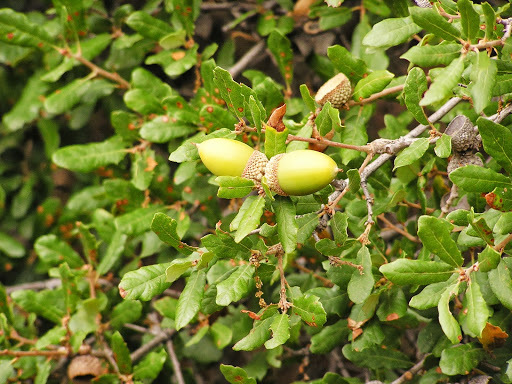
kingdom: Plantae
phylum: Tracheophyta
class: Magnoliopsida
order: Fagales
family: Fagaceae
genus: Quercus
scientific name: Quercus
